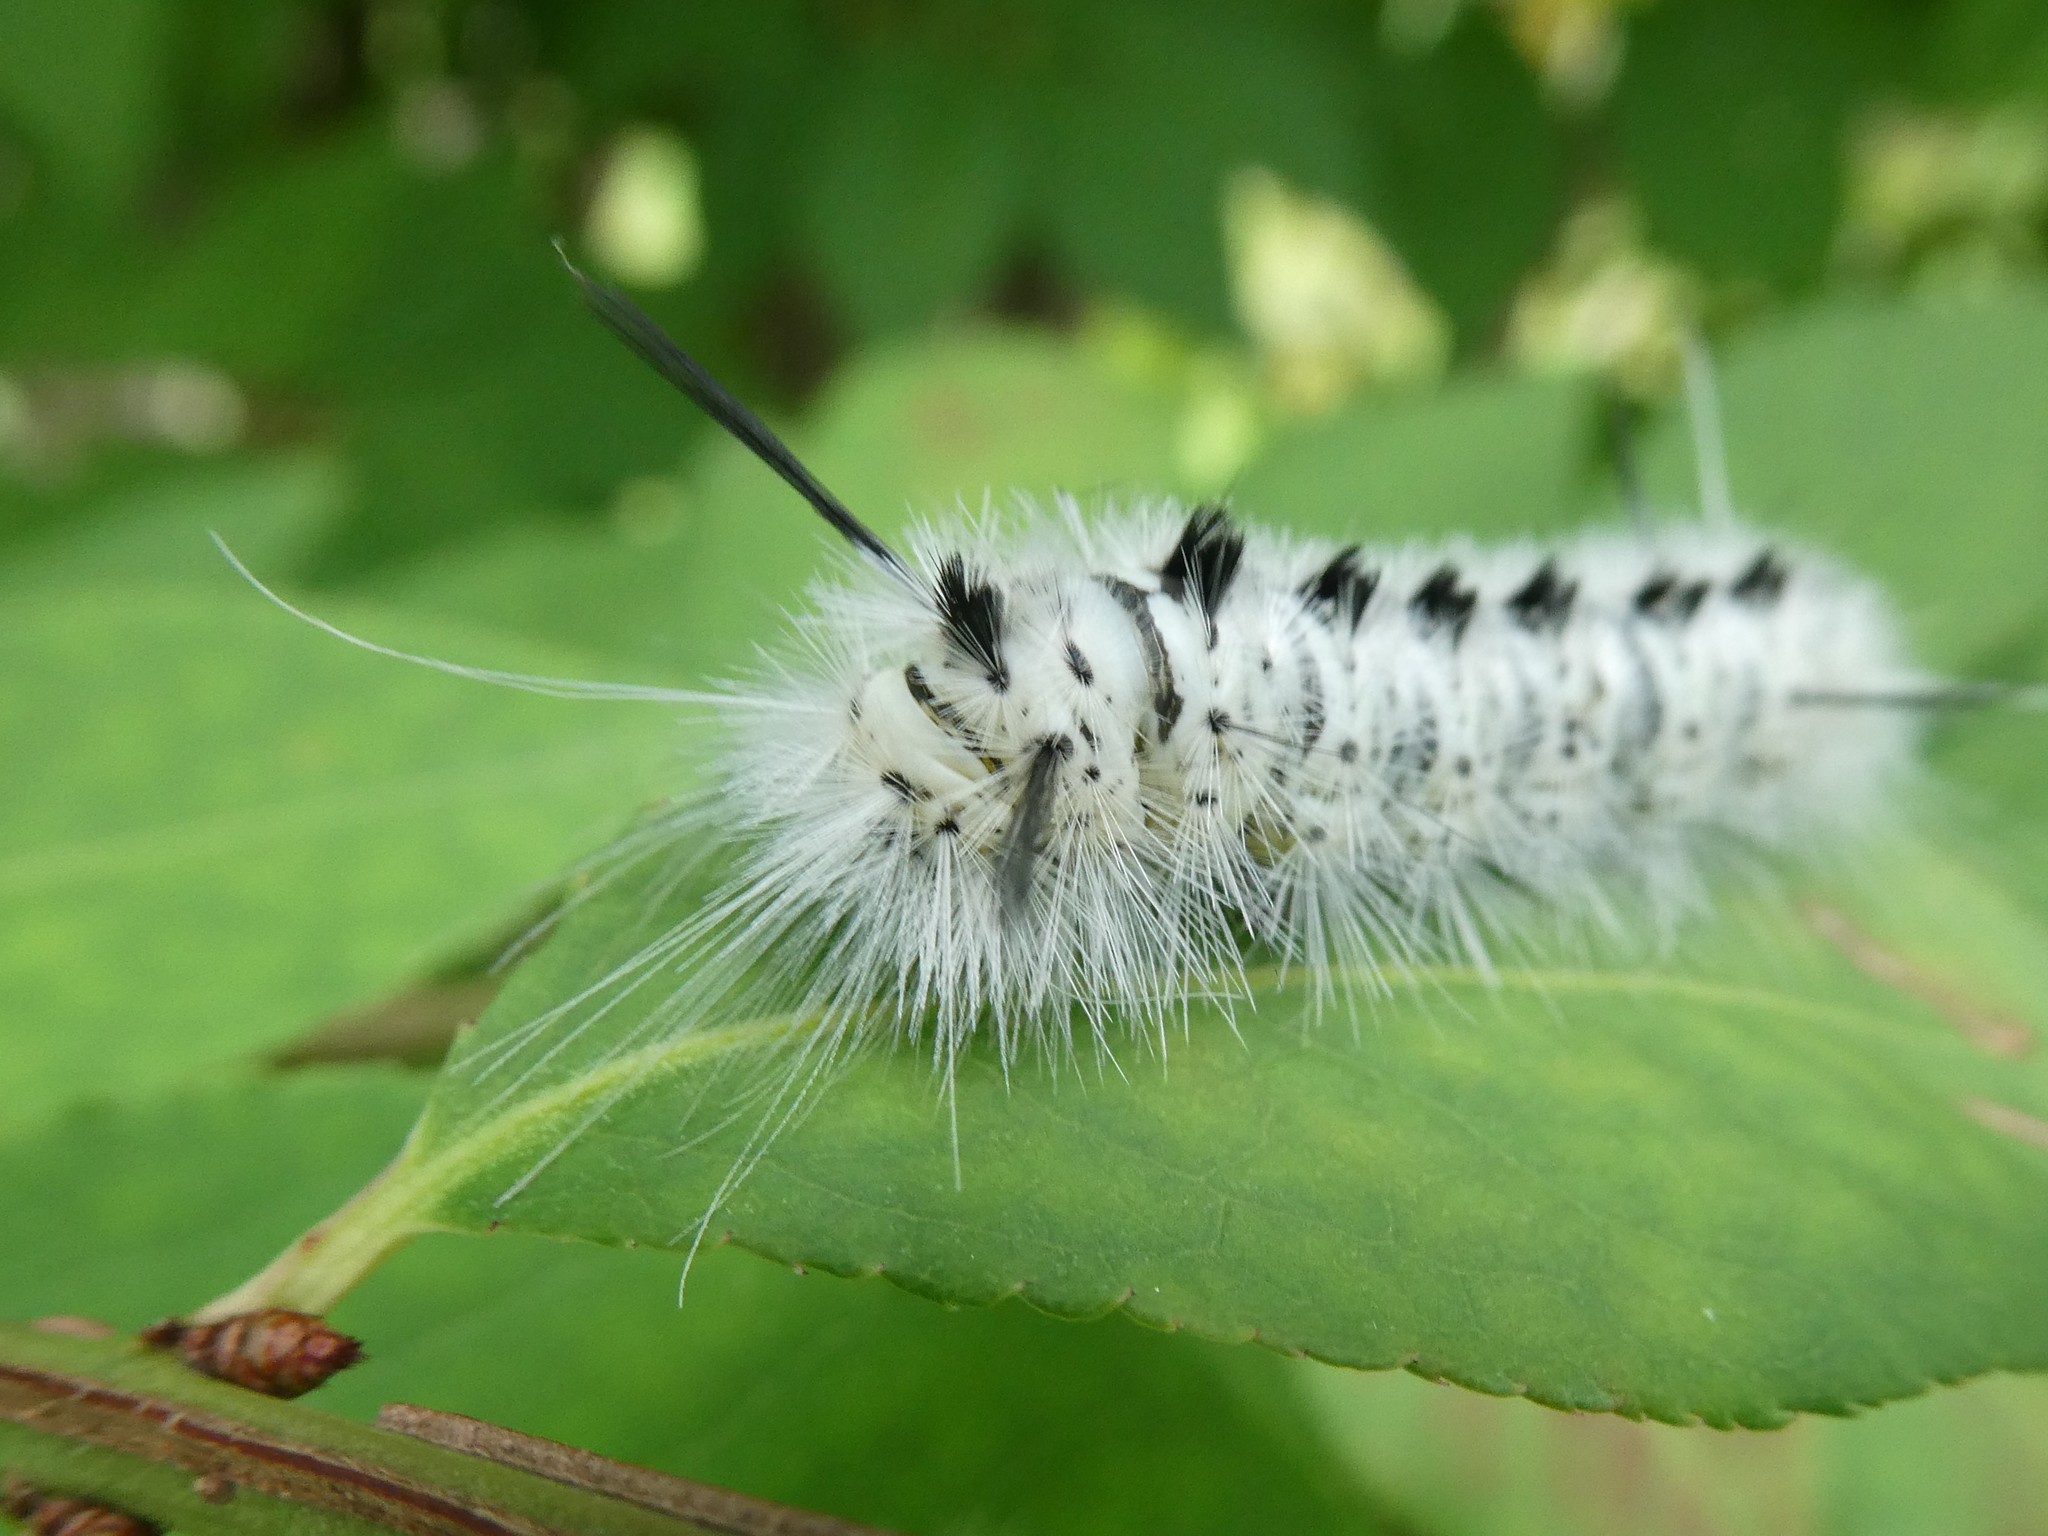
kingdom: Animalia
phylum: Arthropoda
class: Insecta
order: Lepidoptera
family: Erebidae
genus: Lophocampa
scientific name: Lophocampa caryae
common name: Hickory tussock moth
